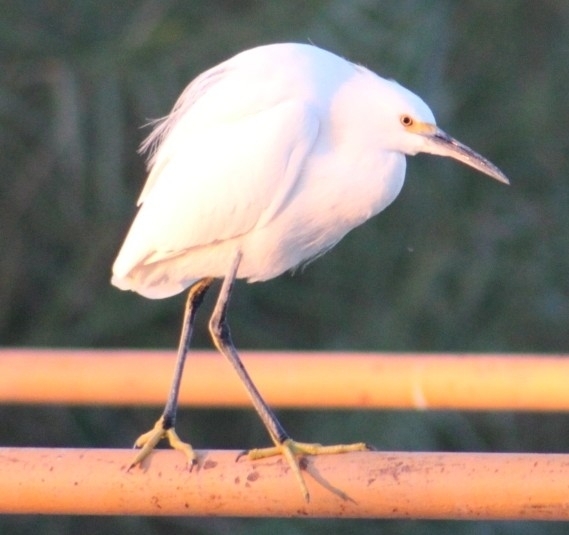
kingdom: Animalia
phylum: Chordata
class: Aves
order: Pelecaniformes
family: Ardeidae
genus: Egretta
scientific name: Egretta thula
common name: Snowy egret
